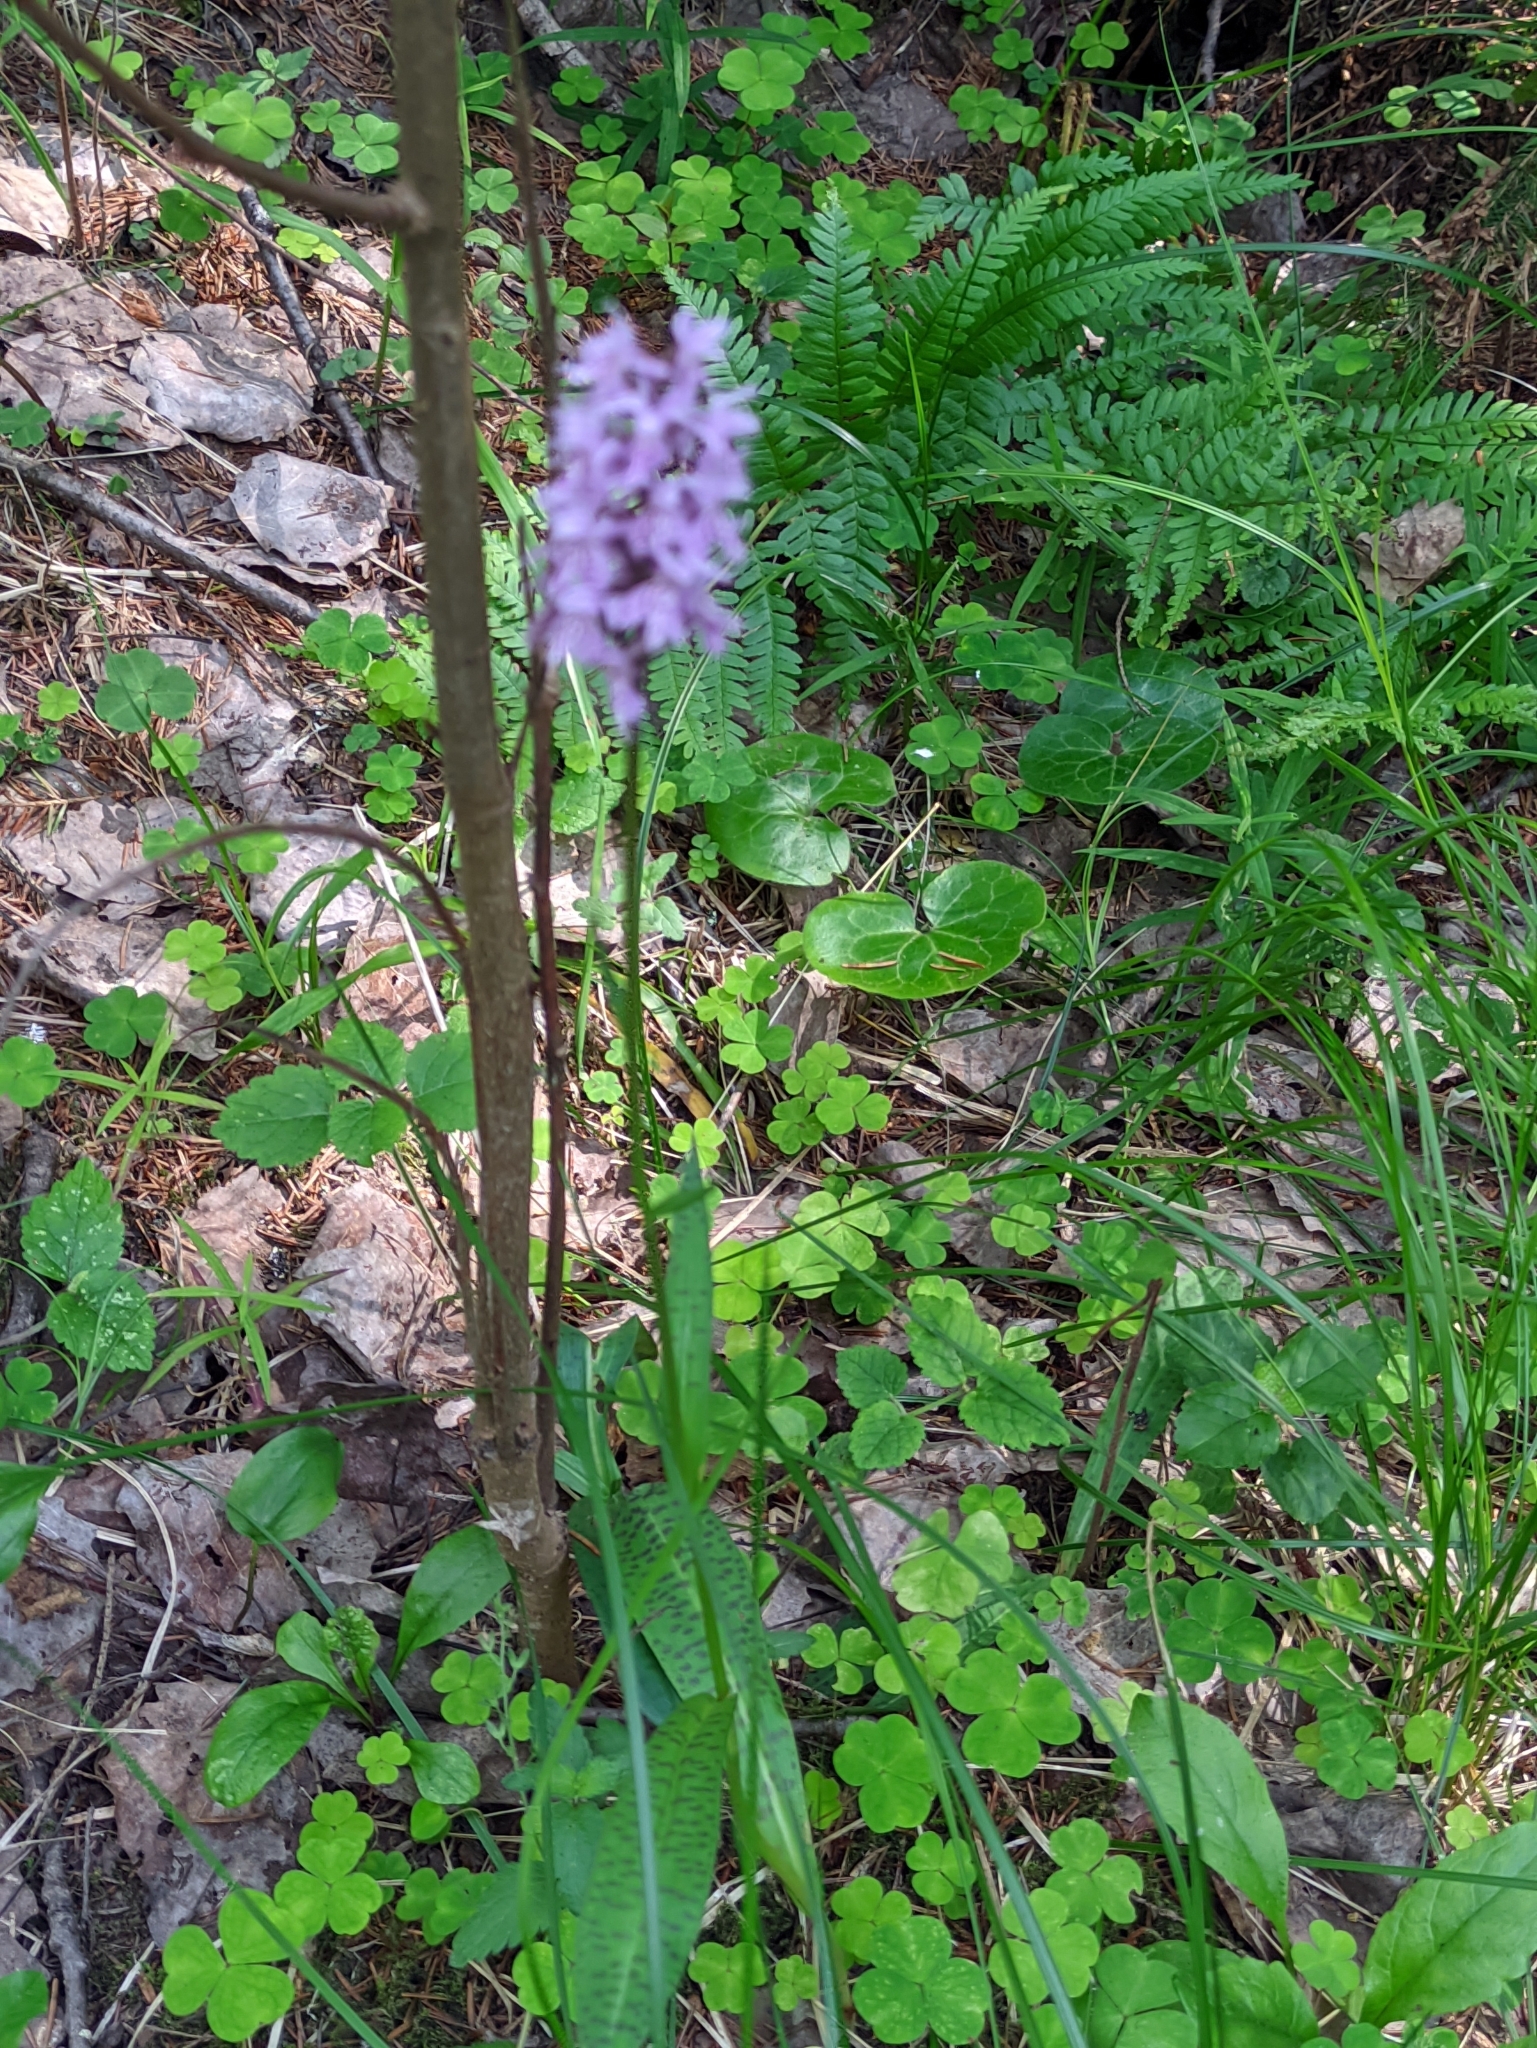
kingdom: Plantae
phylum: Tracheophyta
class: Liliopsida
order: Asparagales
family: Orchidaceae
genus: Dactylorhiza
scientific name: Dactylorhiza maculata
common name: Heath spotted-orchid
